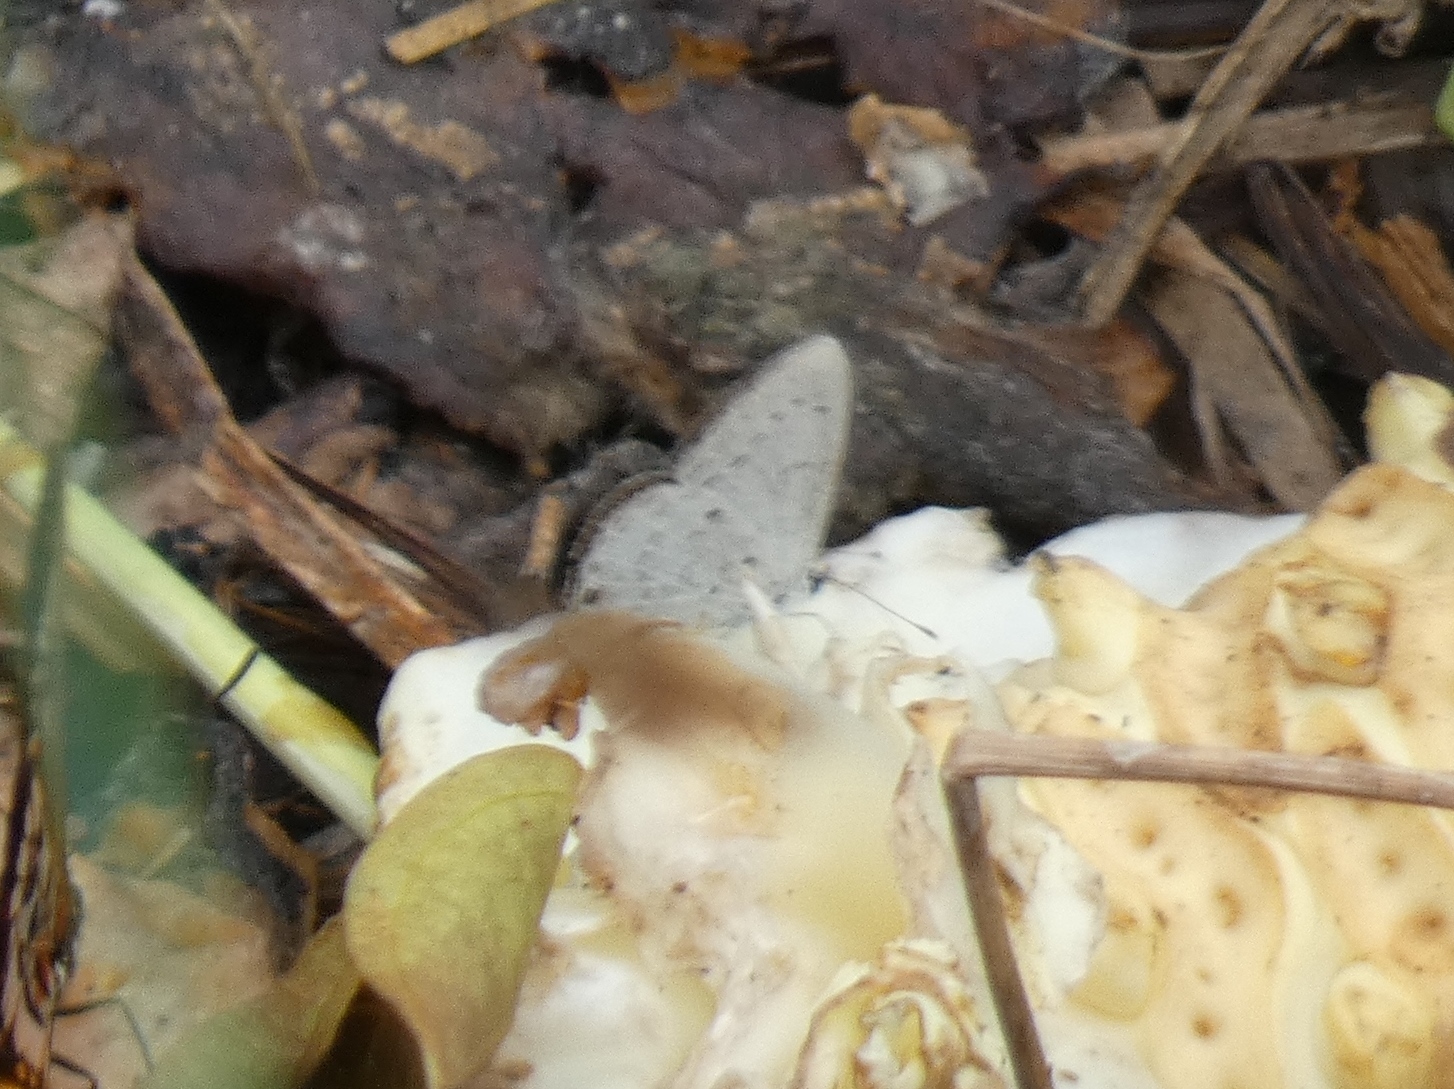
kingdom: Animalia
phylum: Arthropoda
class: Insecta
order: Lepidoptera
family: Lycaenidae
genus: Eicochrysops
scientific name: Eicochrysops hippocrates
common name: White-tipped blue
